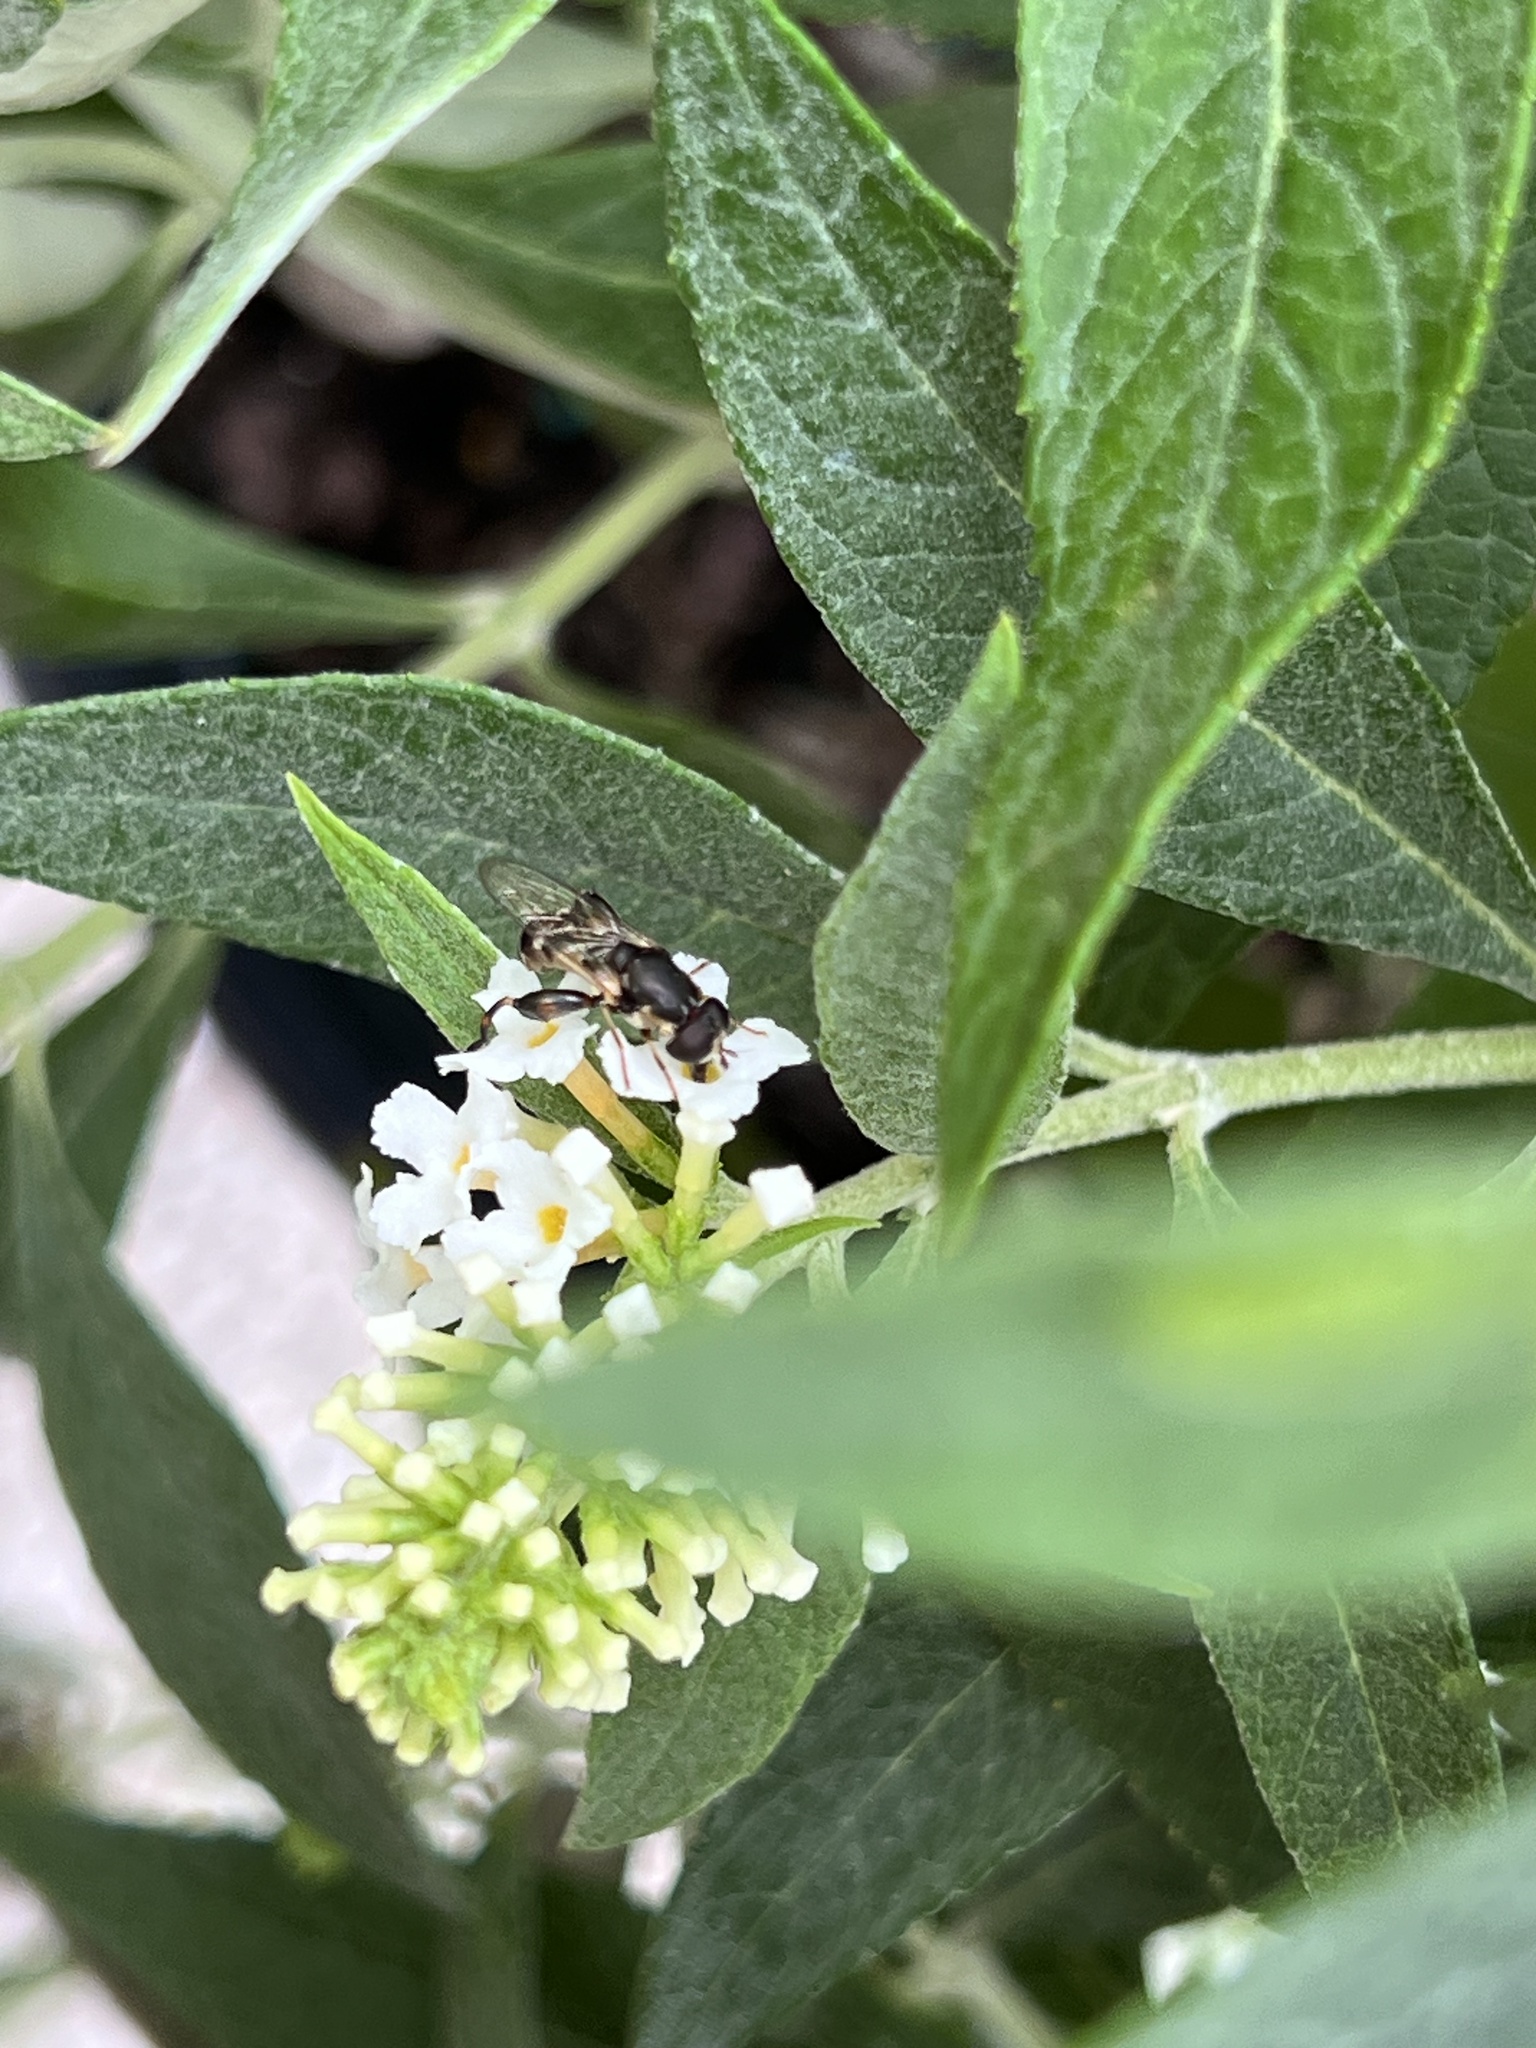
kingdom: Animalia
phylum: Arthropoda
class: Insecta
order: Diptera
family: Syrphidae
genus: Syritta
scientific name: Syritta pipiens
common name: Hover fly
